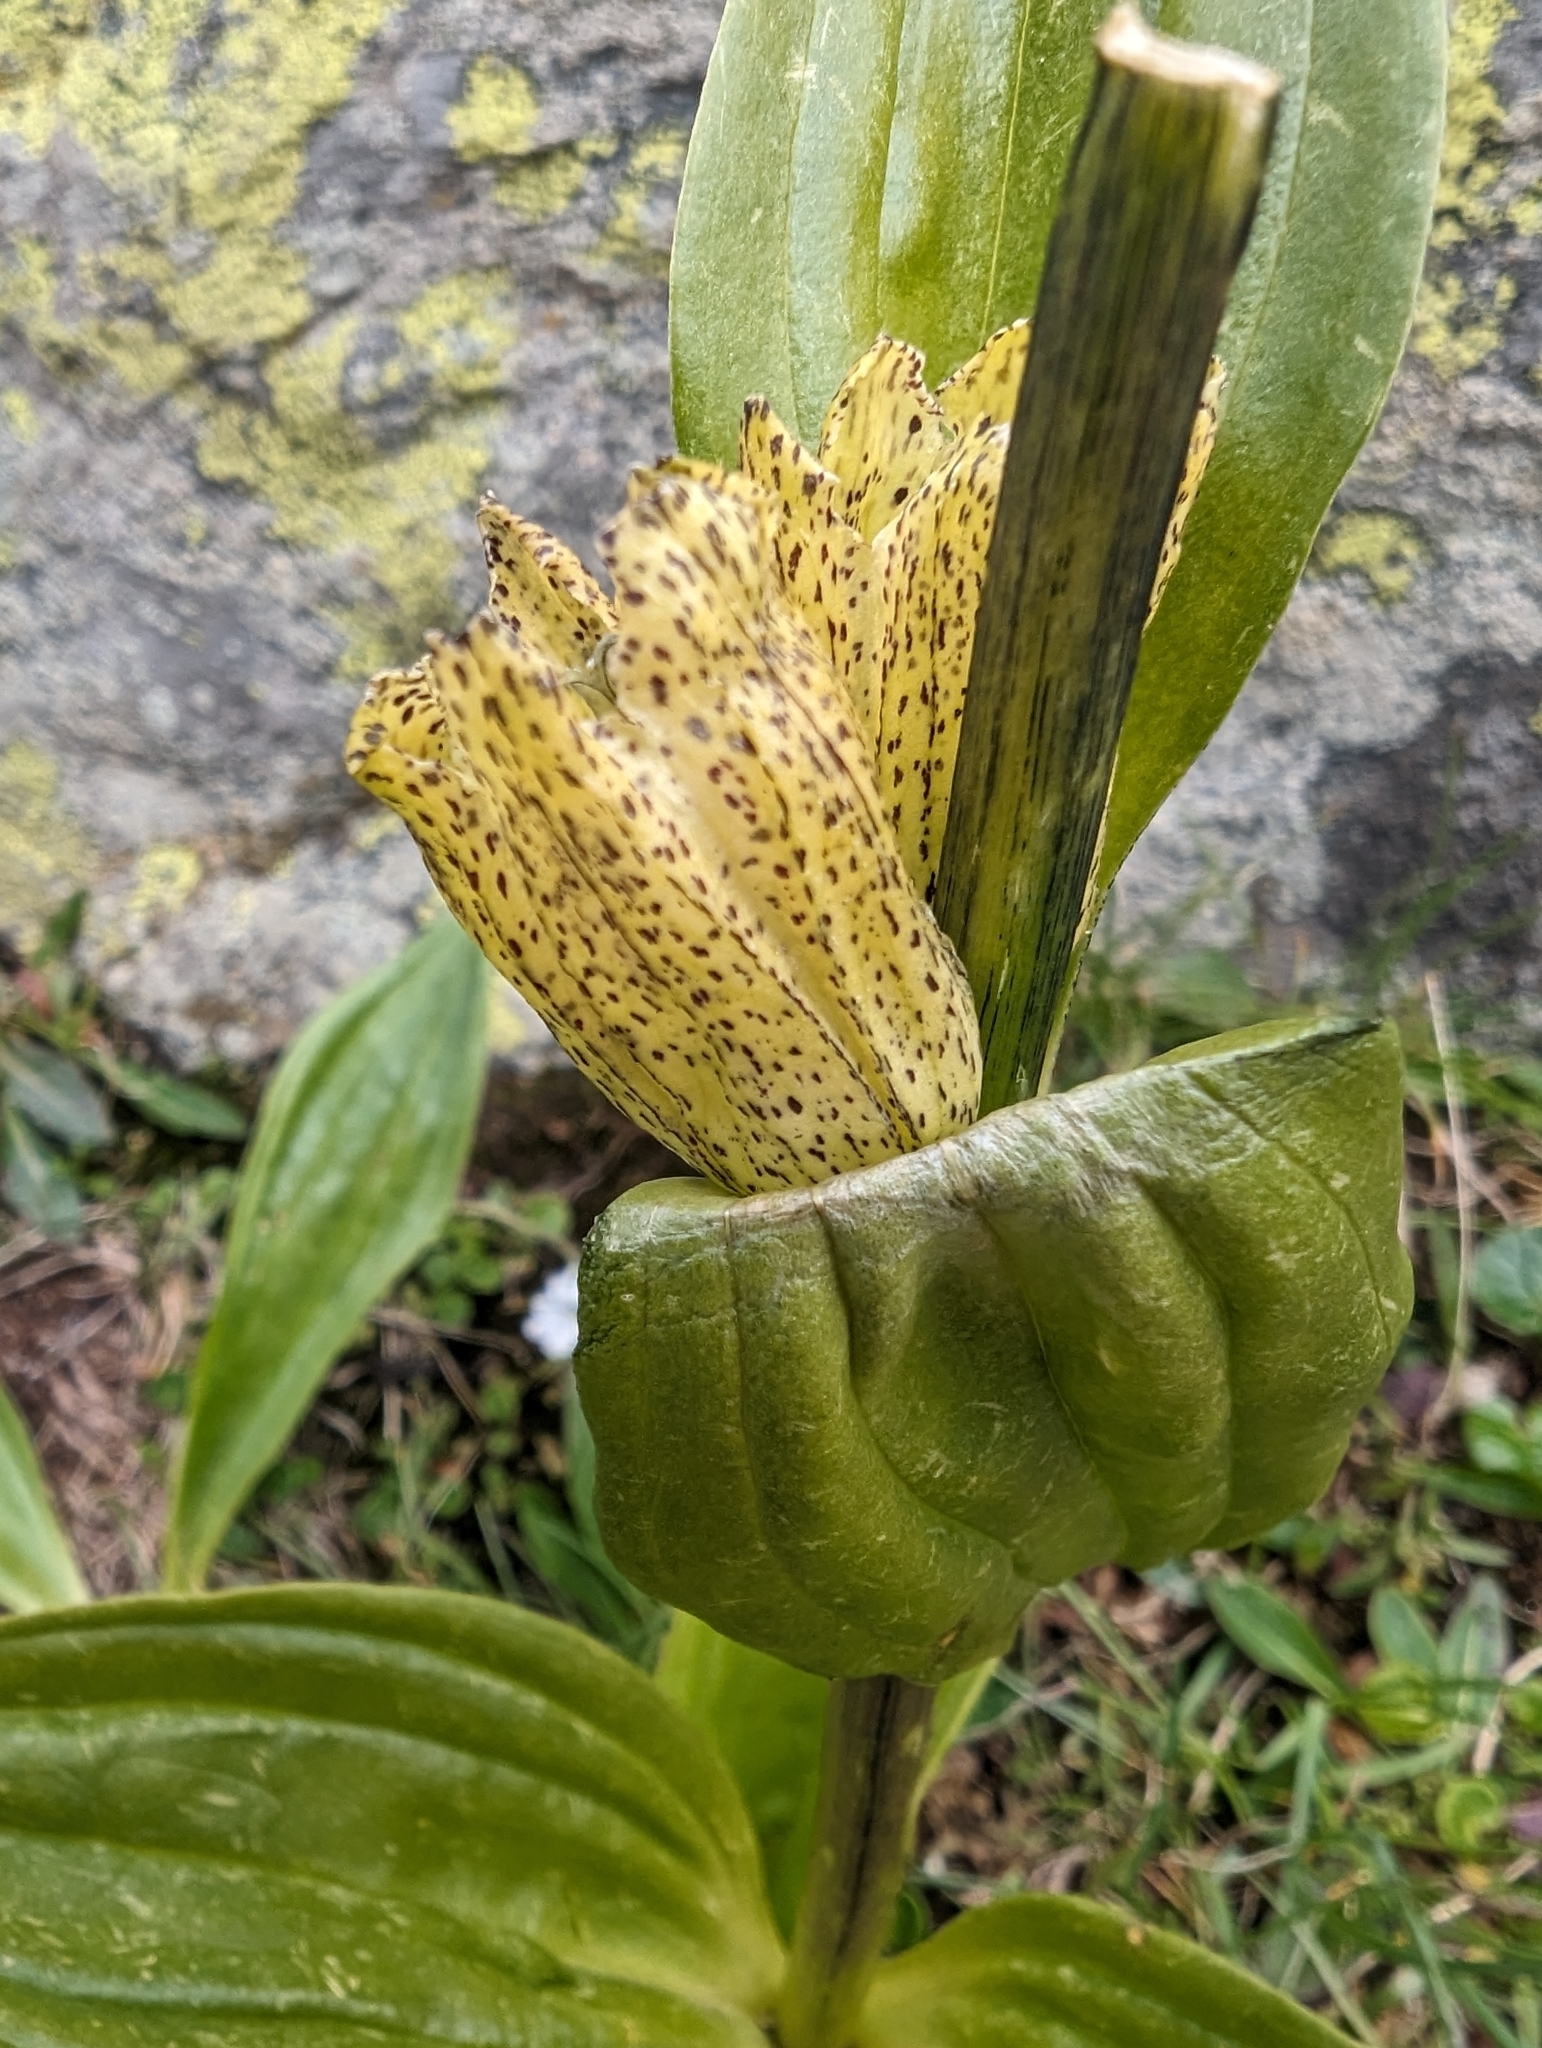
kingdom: Plantae
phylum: Tracheophyta
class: Magnoliopsida
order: Gentianales
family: Gentianaceae
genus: Gentiana
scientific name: Gentiana punctata
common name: Spotted gentian
